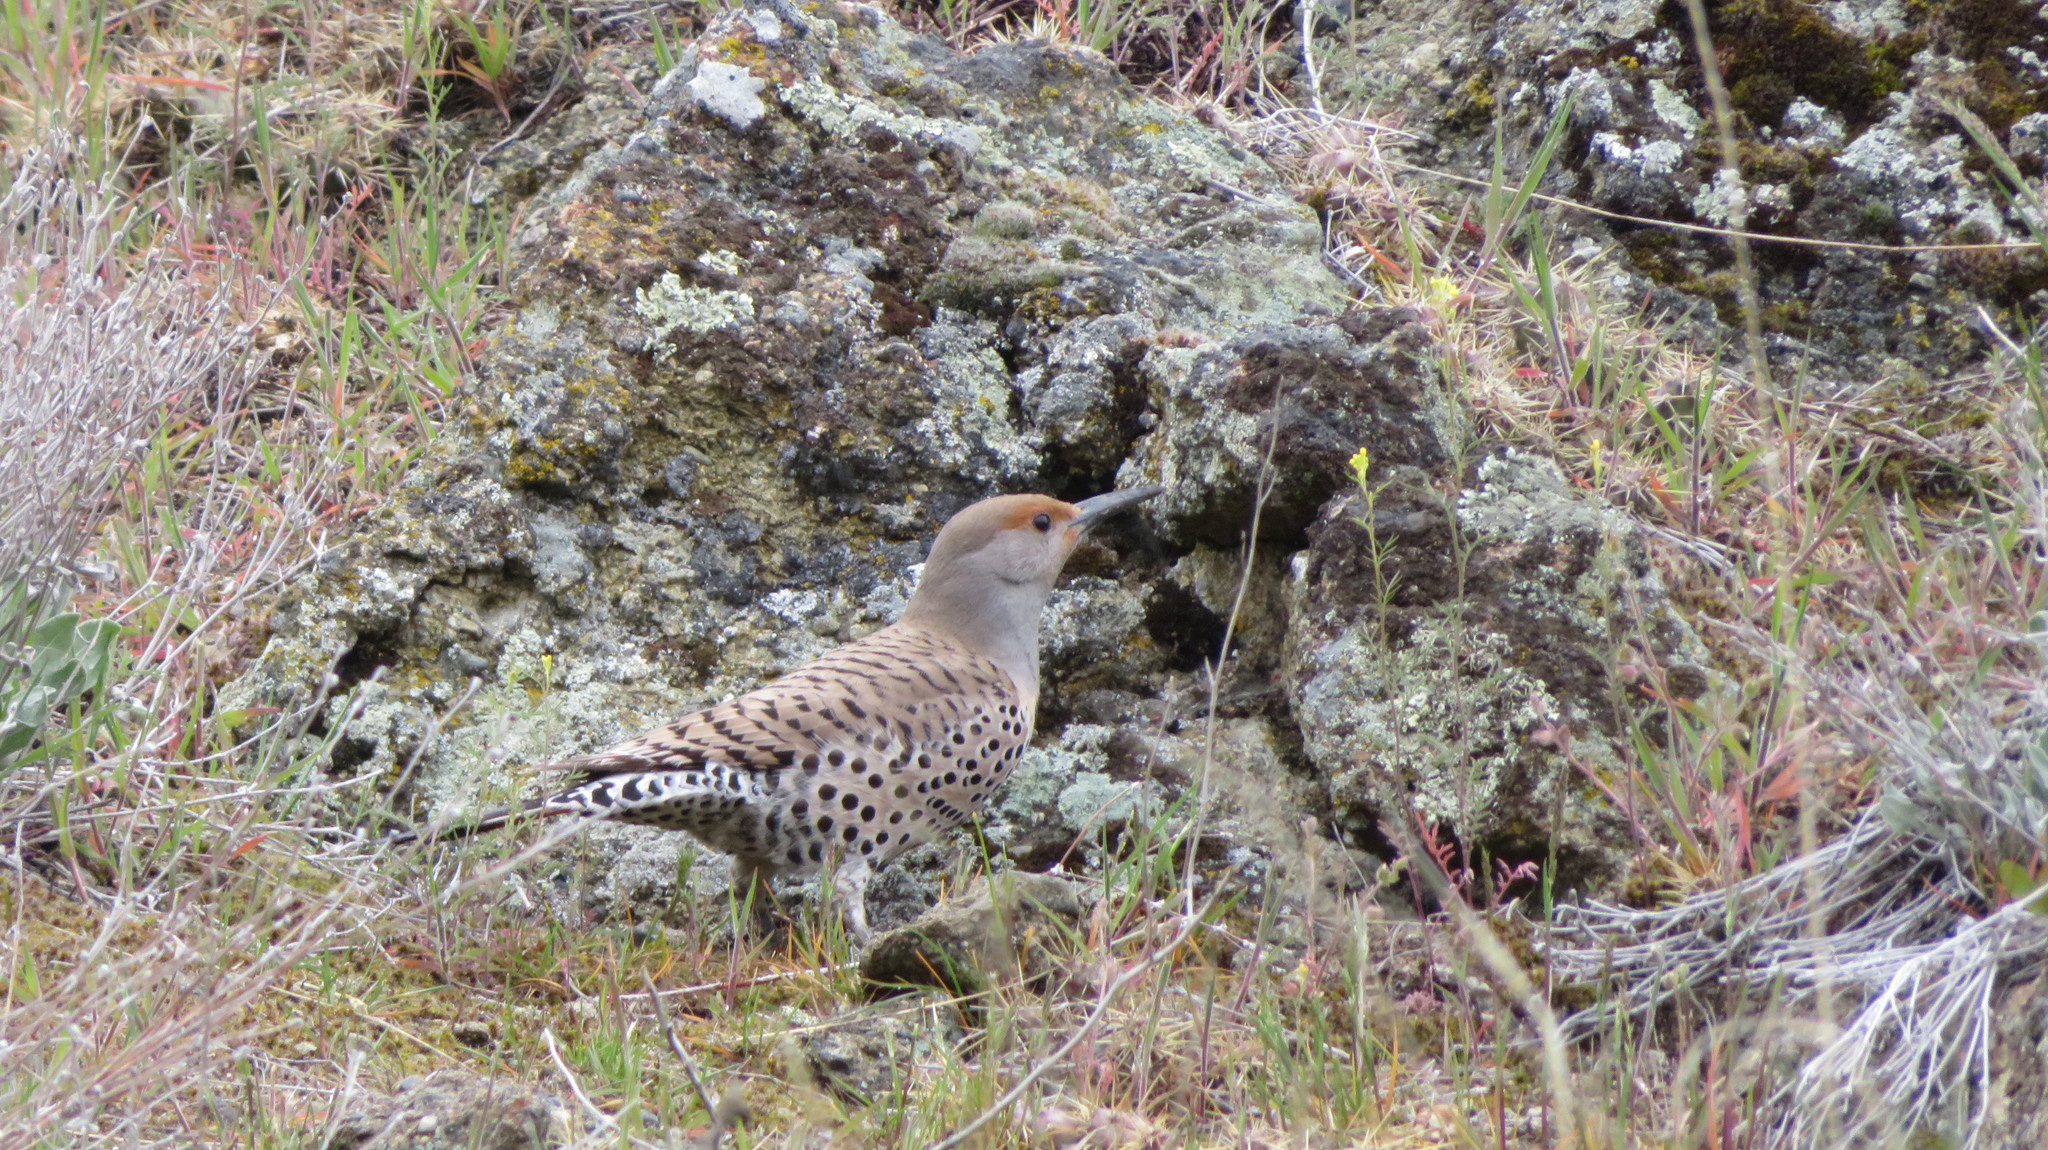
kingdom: Animalia
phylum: Chordata
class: Aves
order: Piciformes
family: Picidae
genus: Colaptes
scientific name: Colaptes auratus
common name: Northern flicker
